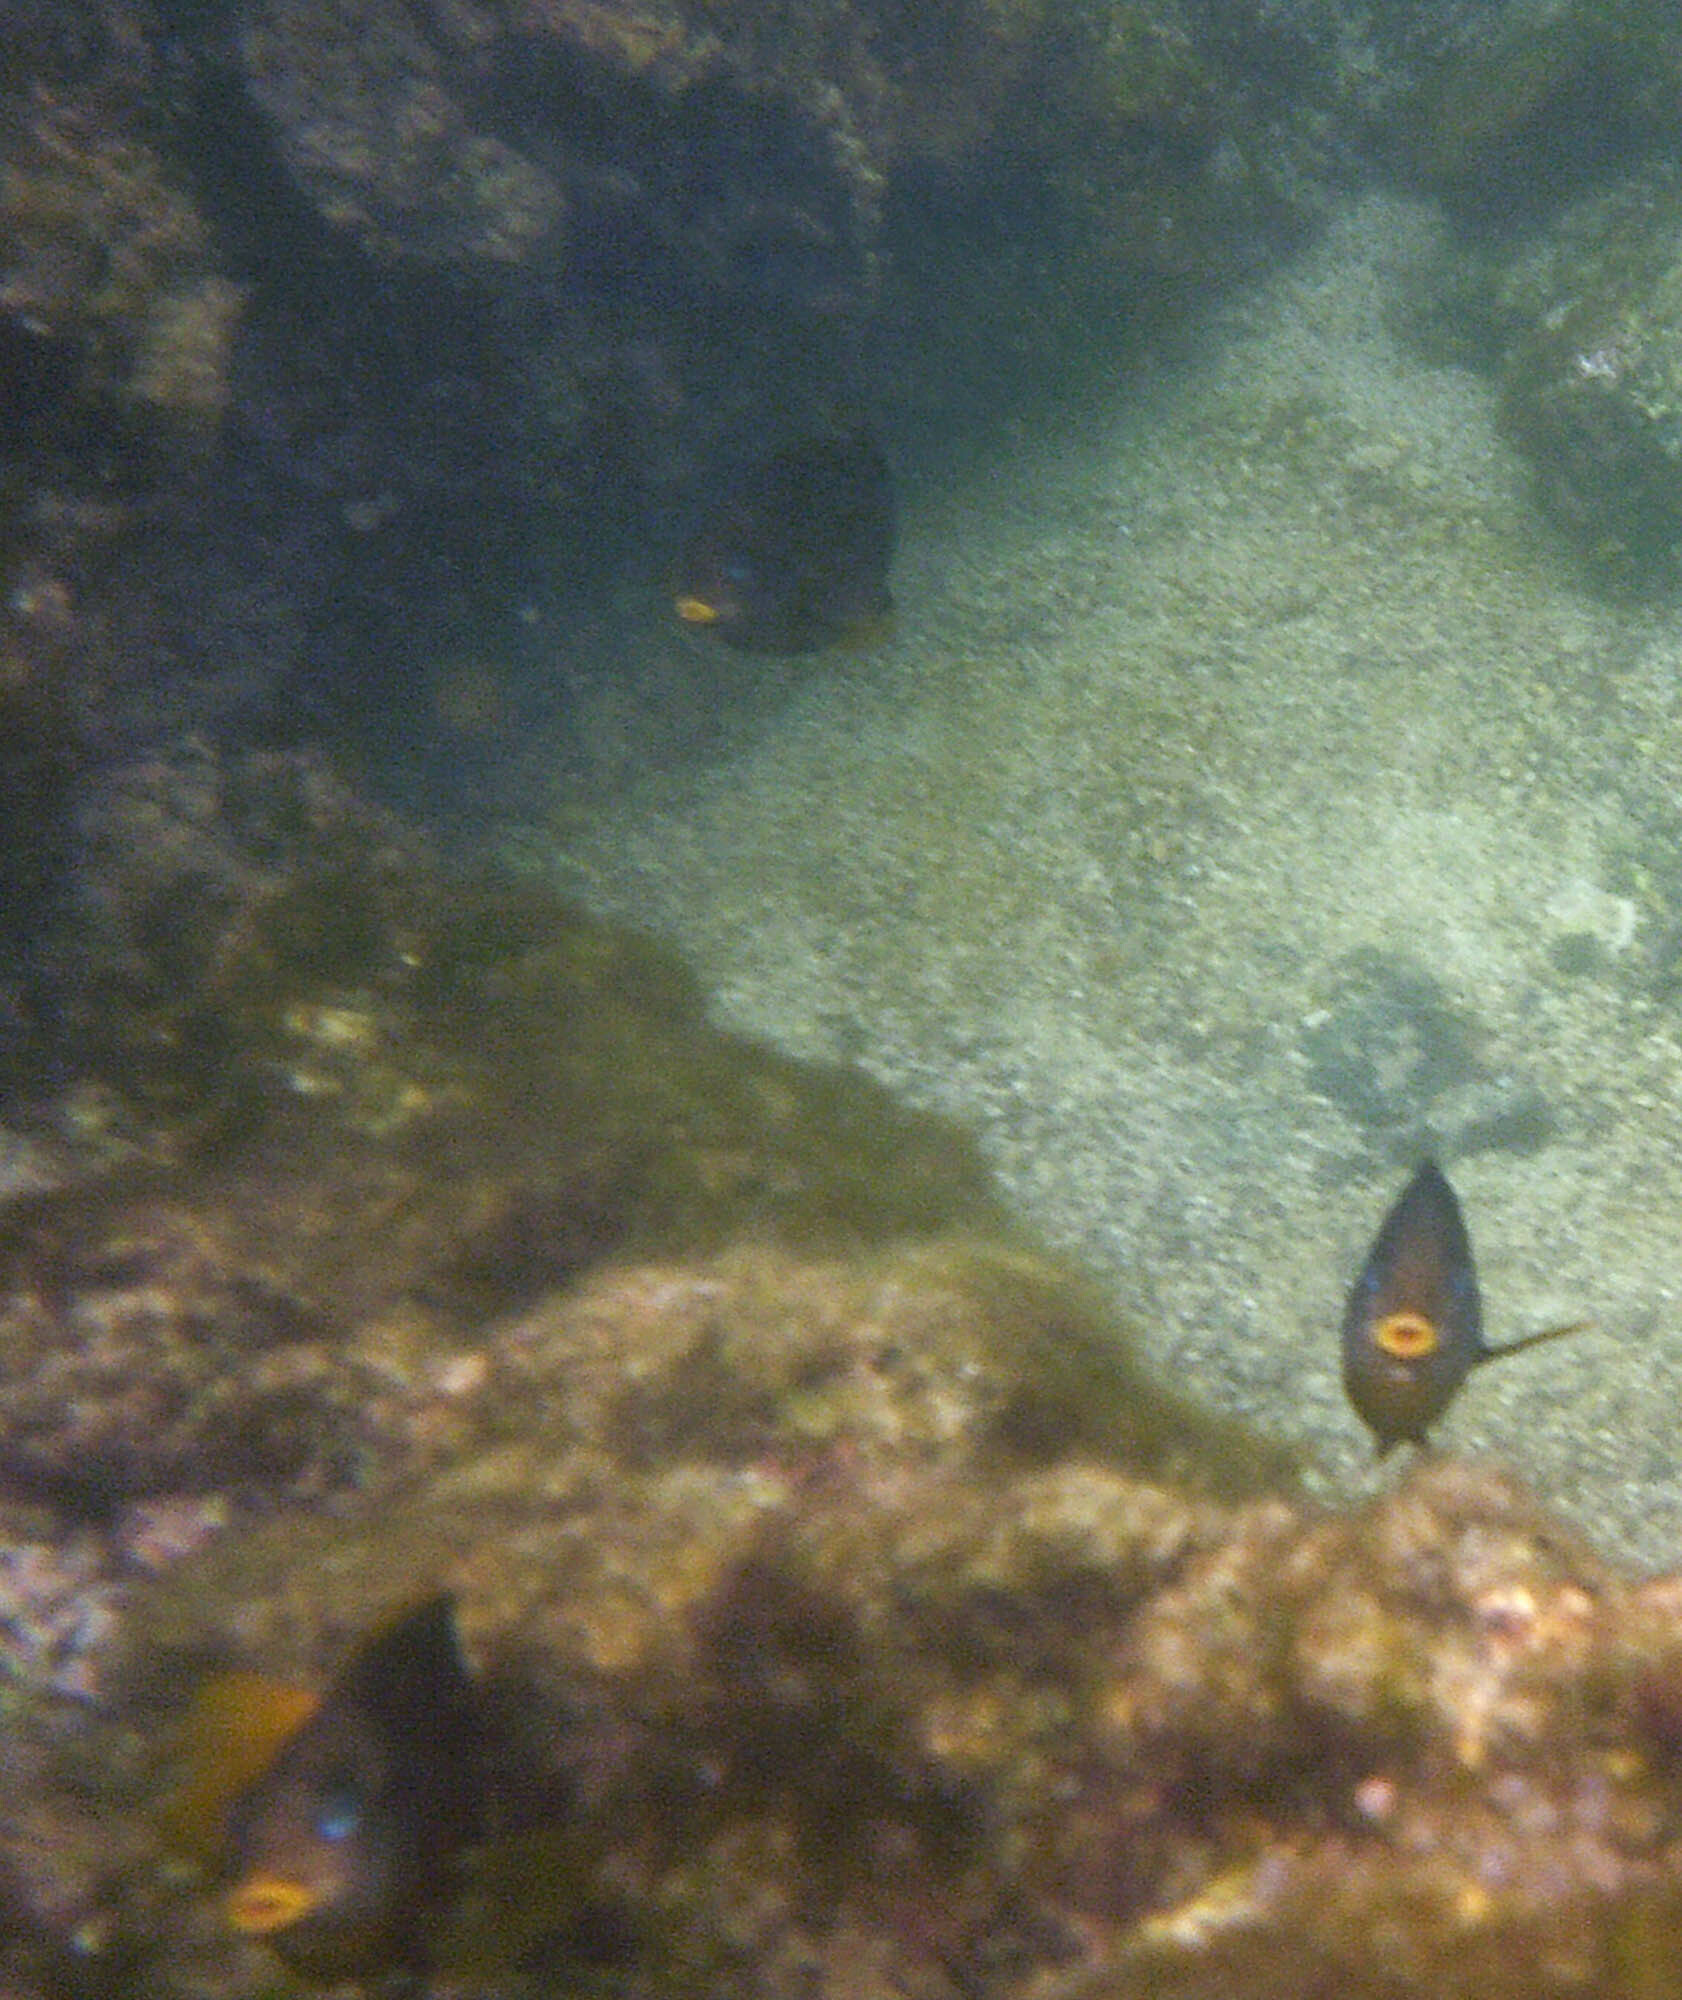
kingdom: Animalia
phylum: Chordata
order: Perciformes
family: Pomacentridae
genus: Stegastes
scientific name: Stegastes arcifrons
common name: Galapagos gregory
